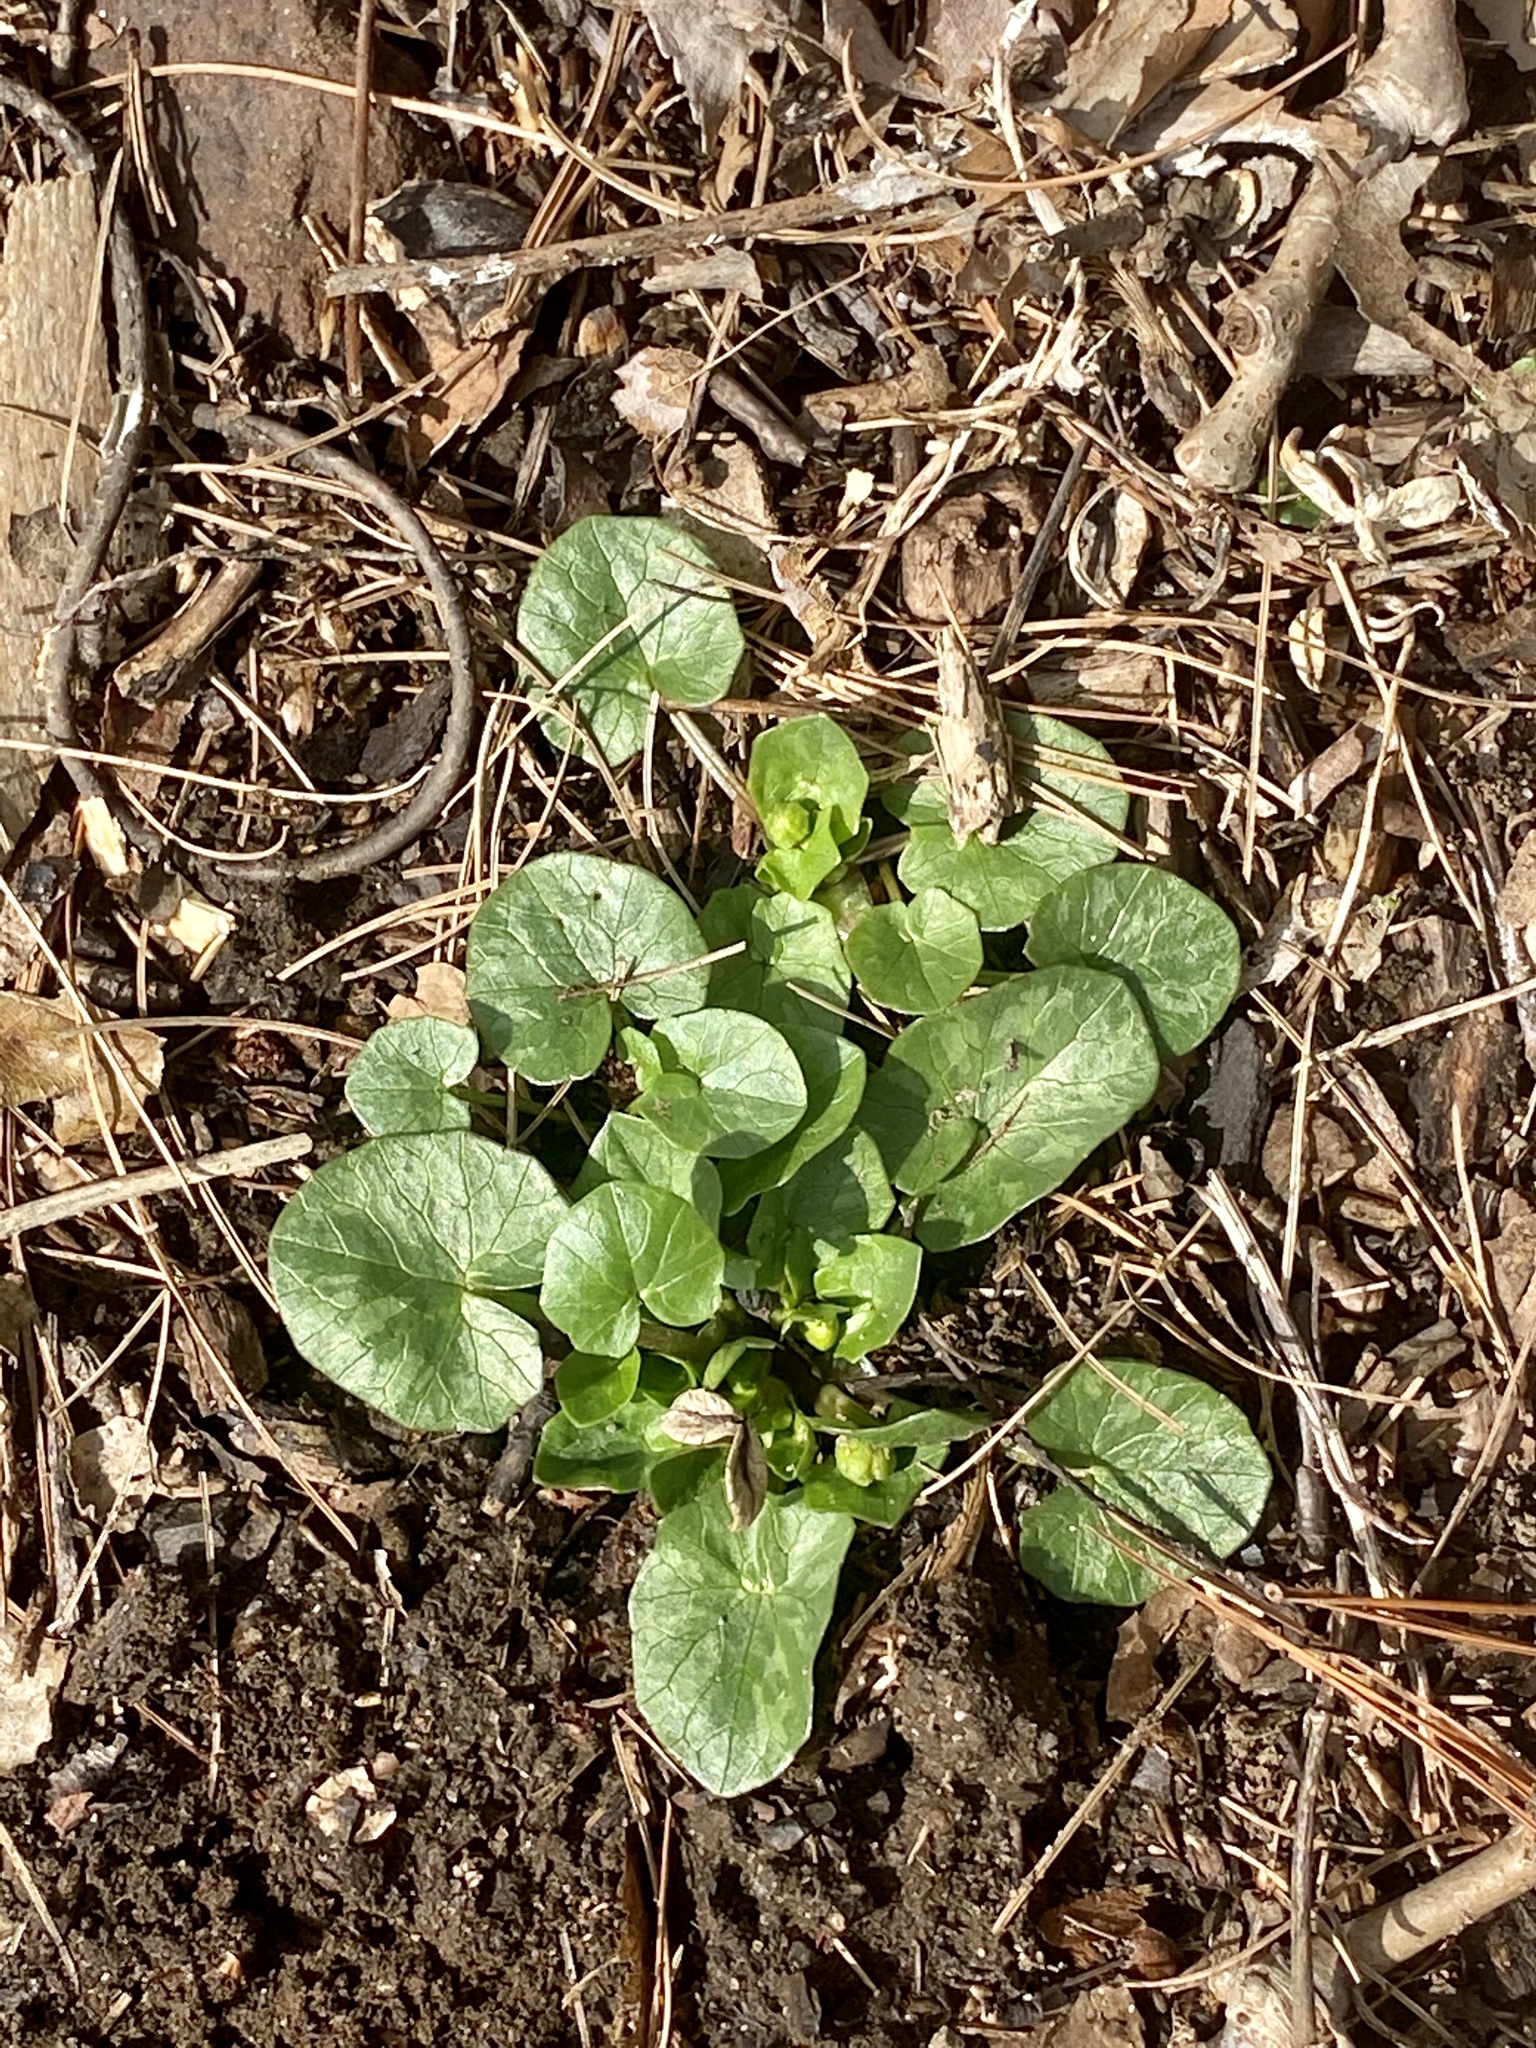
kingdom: Plantae
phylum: Tracheophyta
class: Magnoliopsida
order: Ranunculales
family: Ranunculaceae
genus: Ficaria
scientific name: Ficaria verna
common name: Lesser celandine
